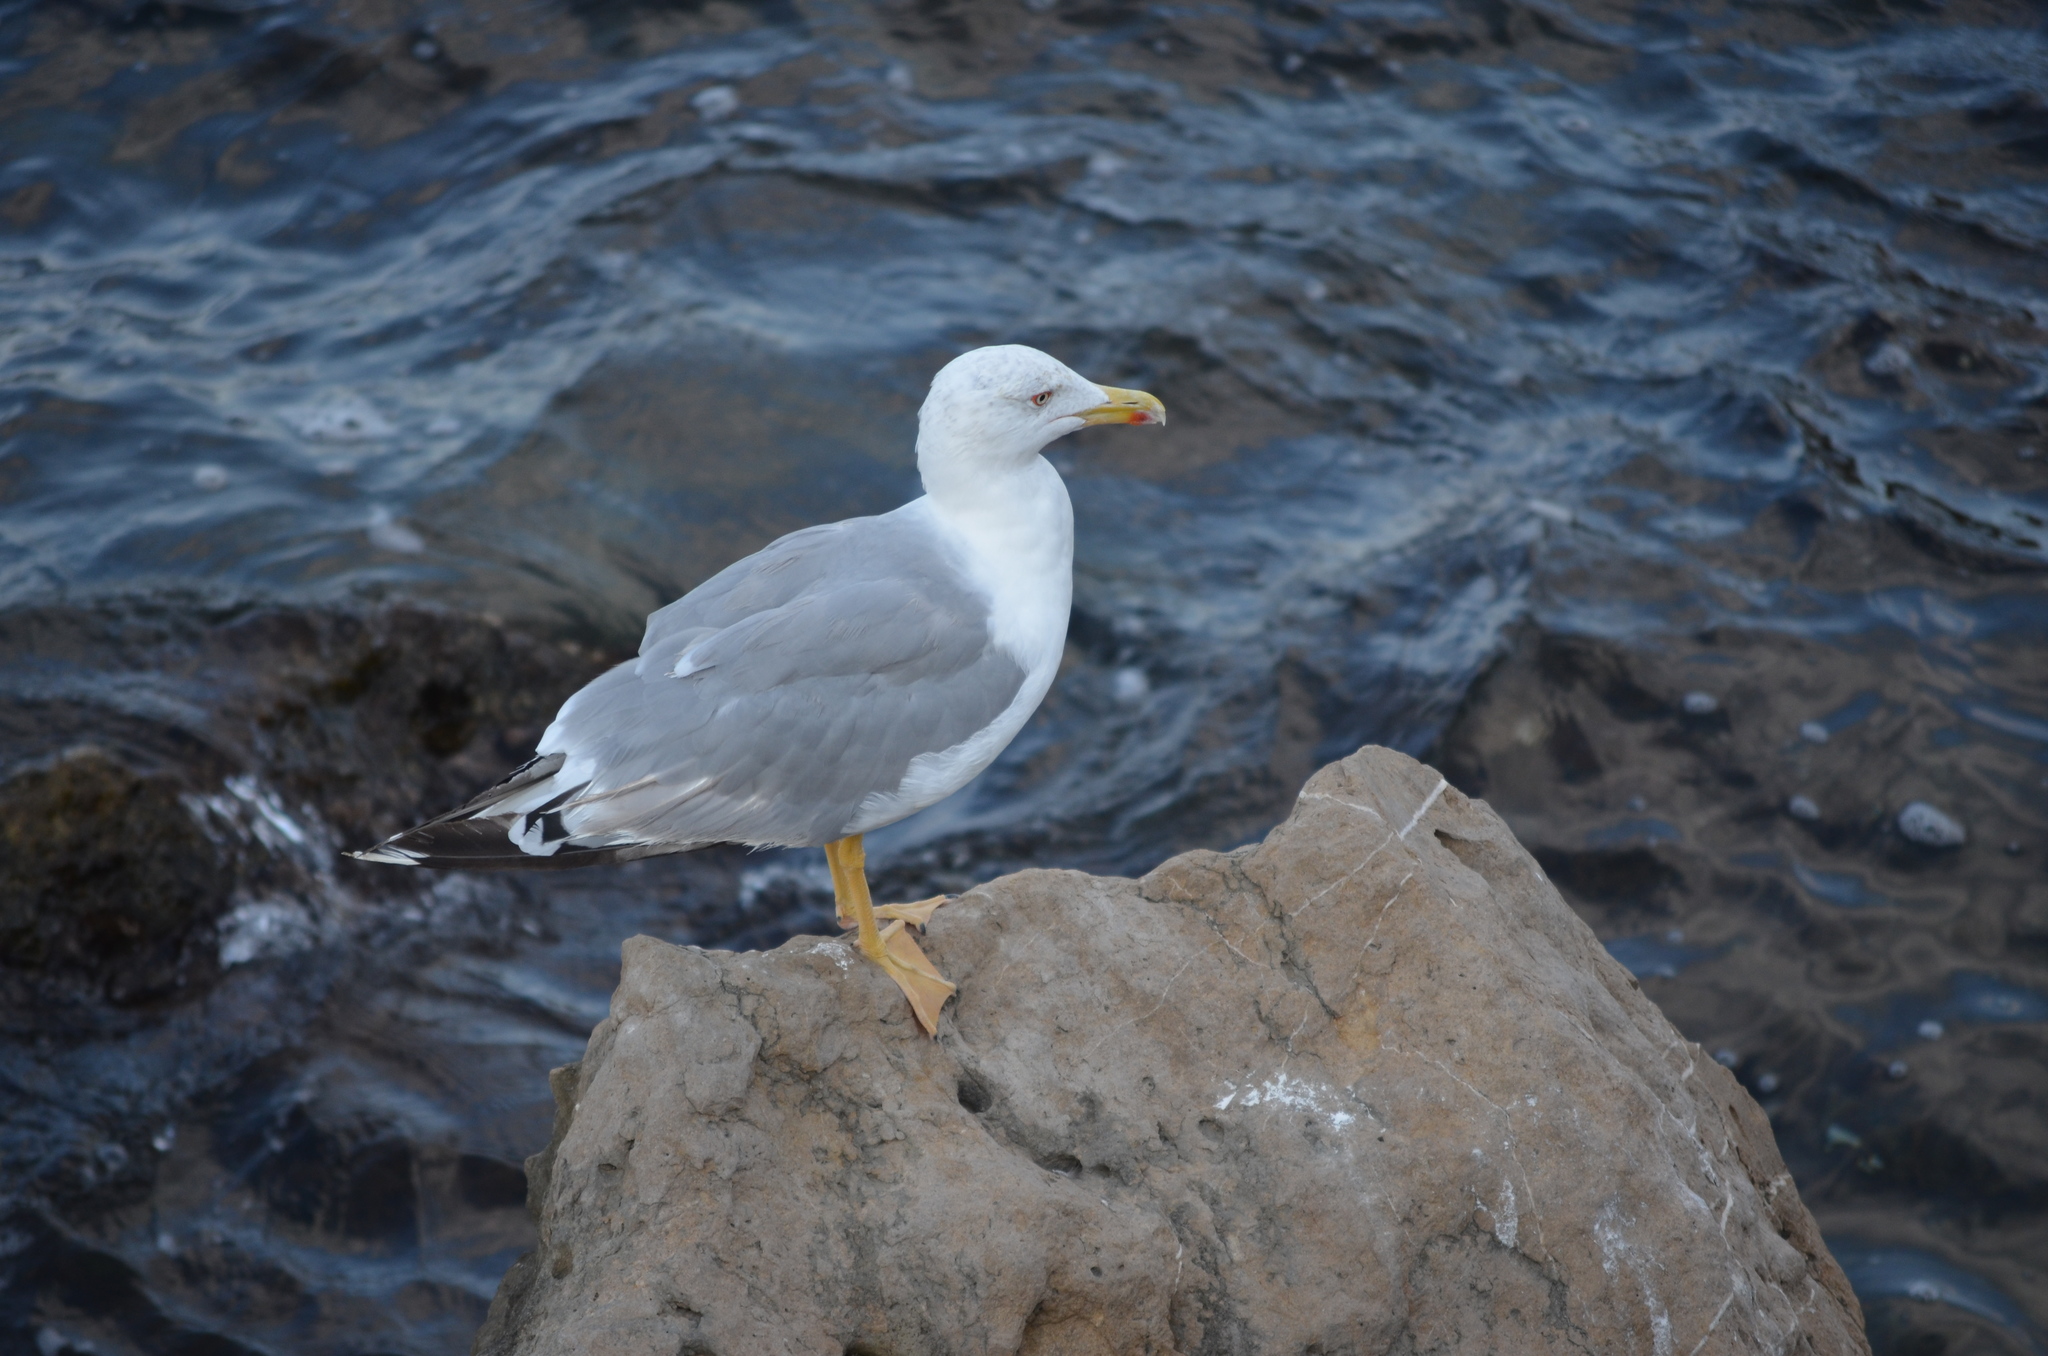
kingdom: Animalia
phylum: Chordata
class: Aves
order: Charadriiformes
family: Laridae
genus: Larus
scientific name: Larus michahellis
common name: Yellow-legged gull
